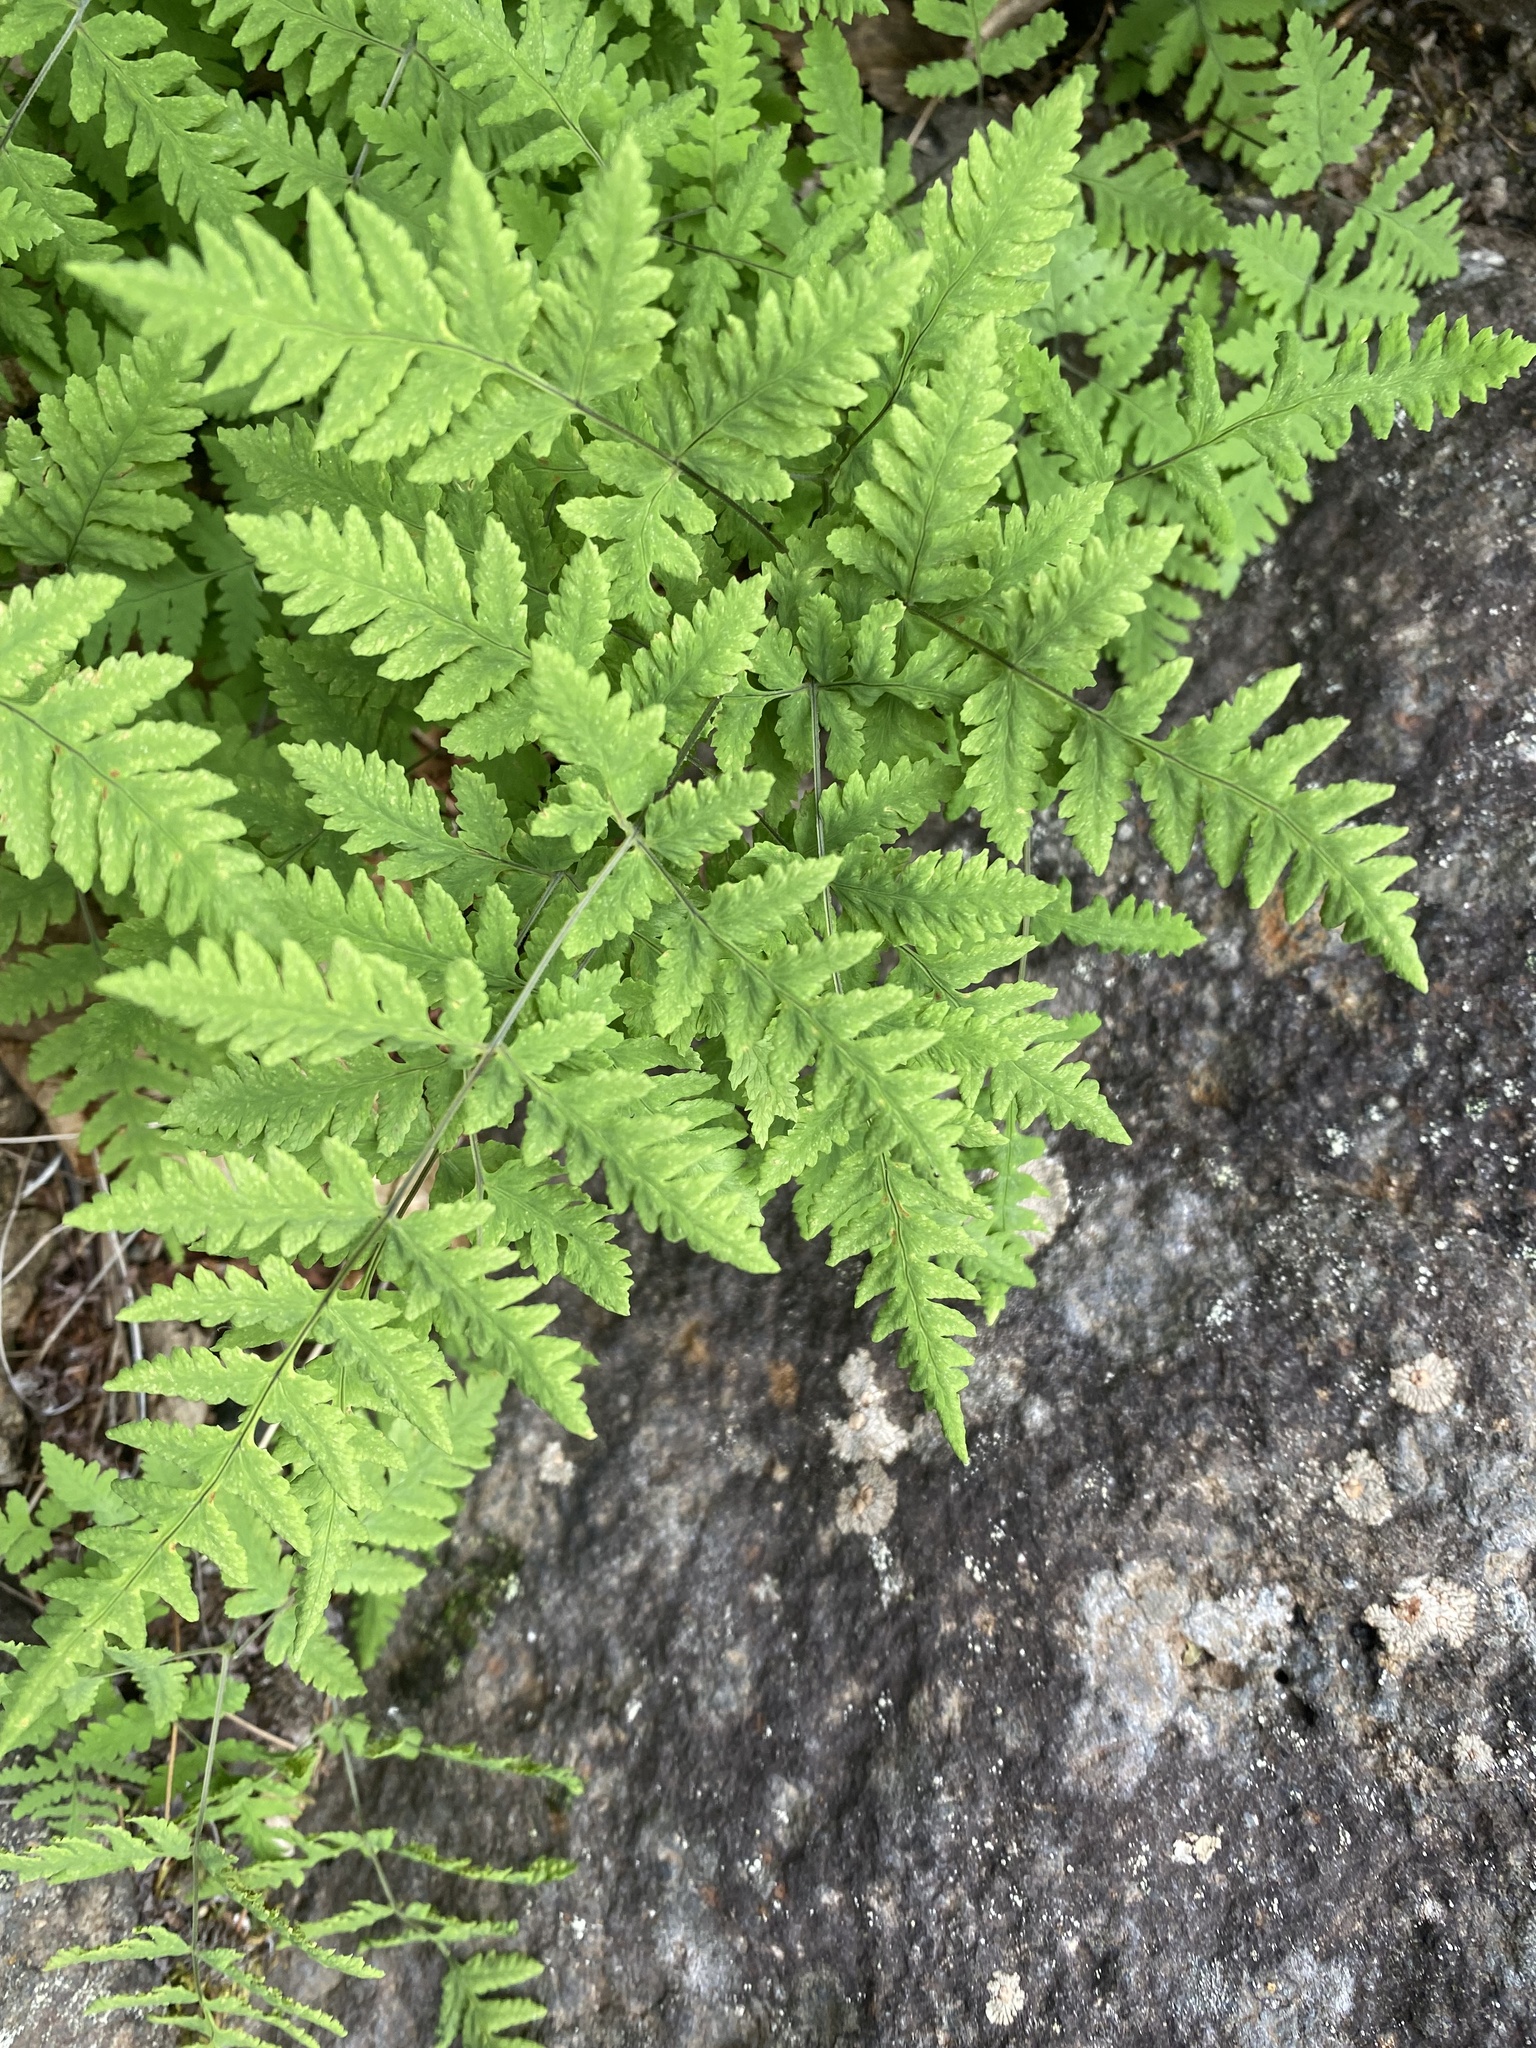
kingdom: Plantae
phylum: Tracheophyta
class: Polypodiopsida
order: Polypodiales
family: Cystopteridaceae
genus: Gymnocarpium
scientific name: Gymnocarpium jessoense
